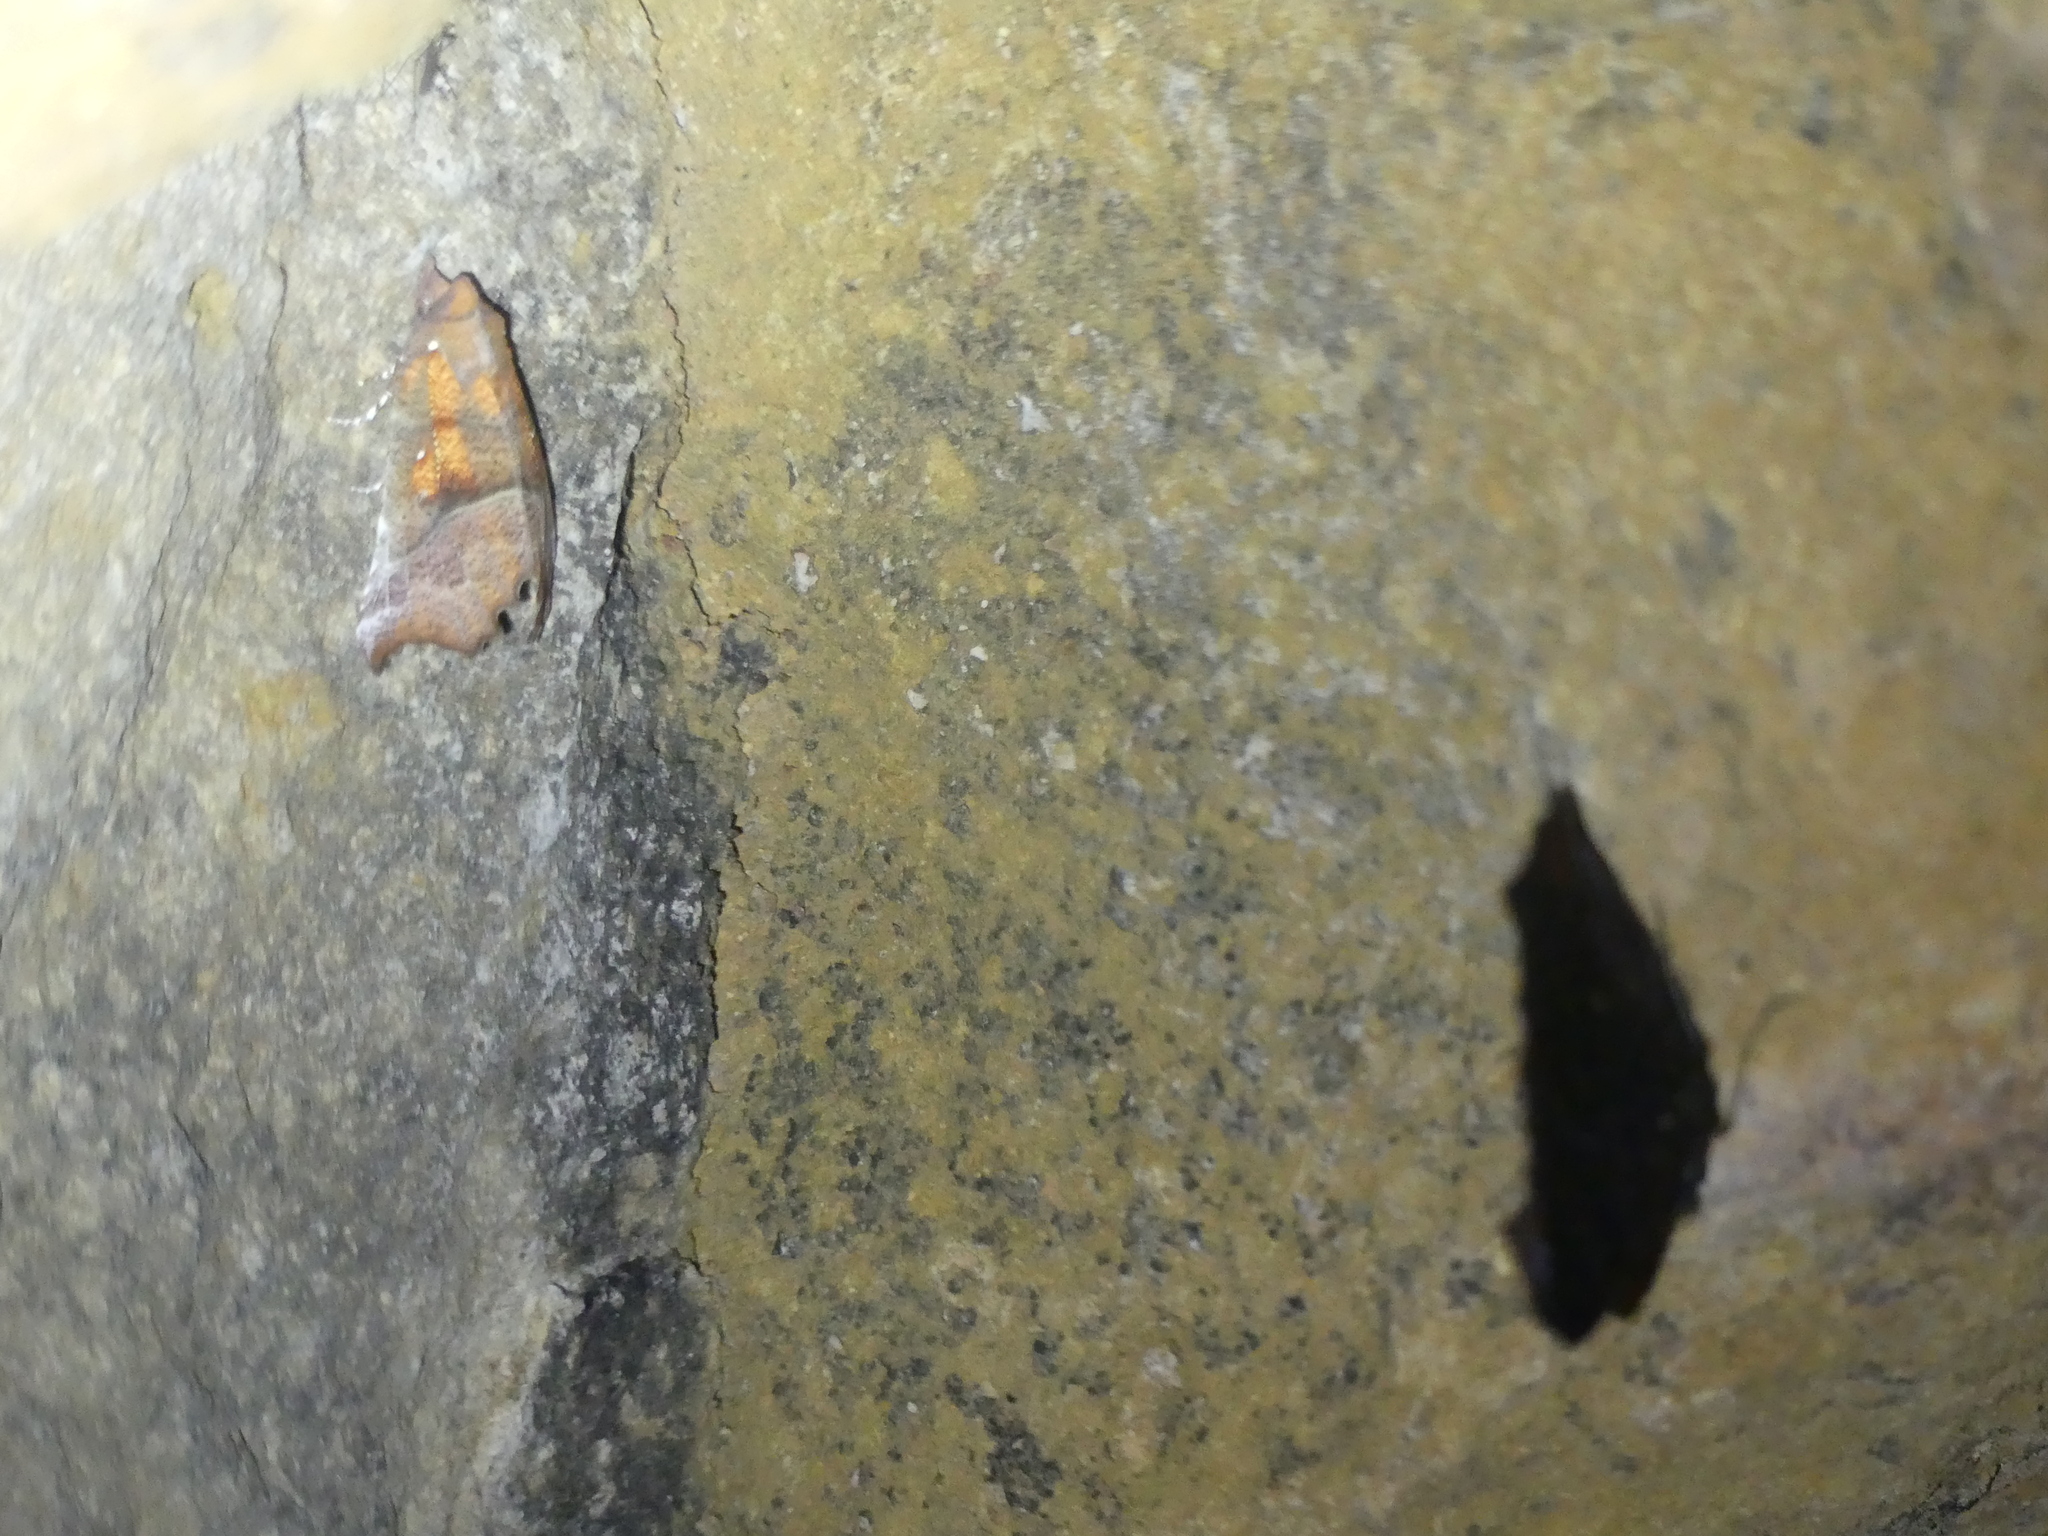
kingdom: Animalia
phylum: Arthropoda
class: Insecta
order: Lepidoptera
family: Erebidae
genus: Scoliopteryx
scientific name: Scoliopteryx libatrix
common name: Herald
